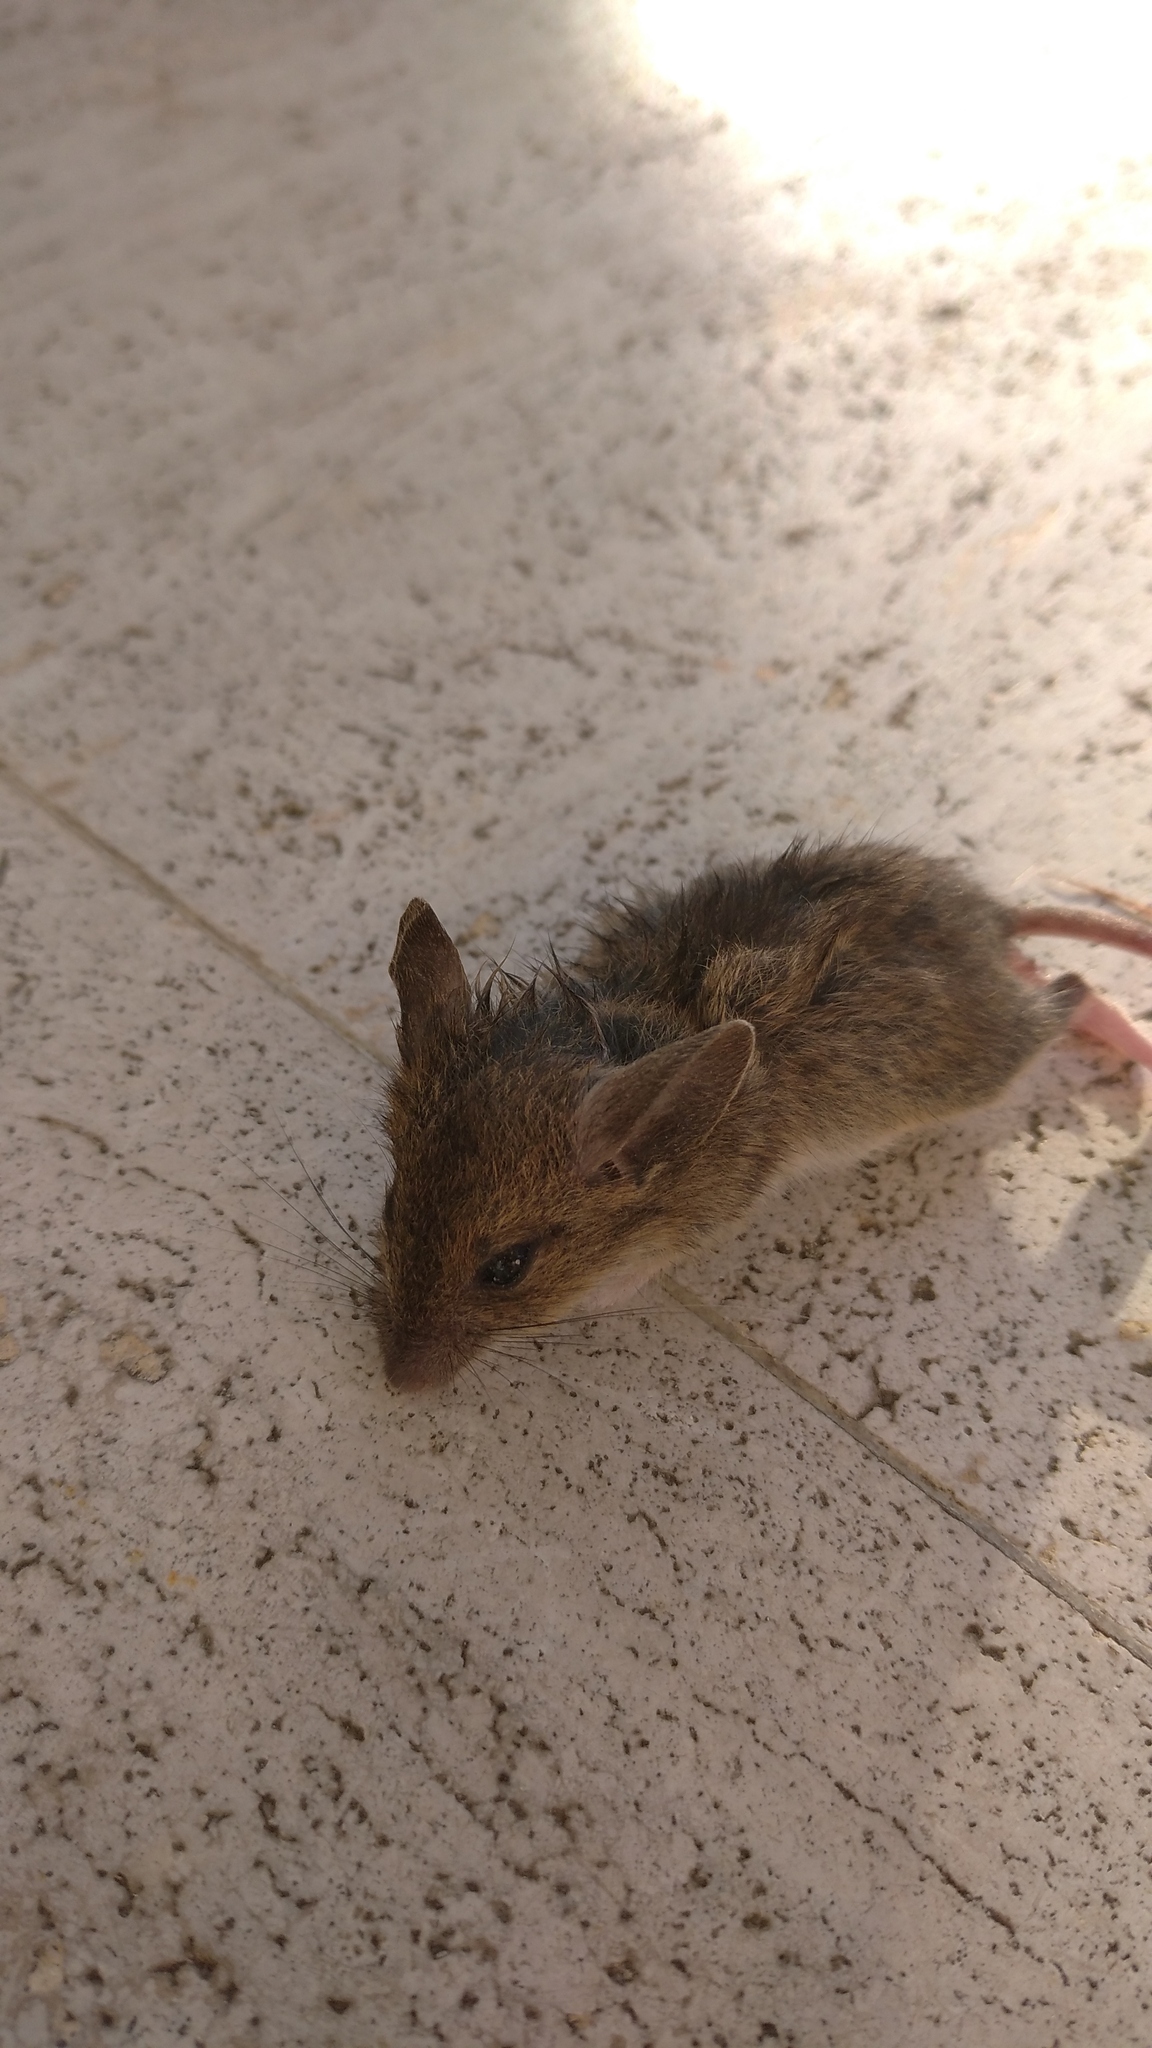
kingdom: Animalia
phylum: Chordata
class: Mammalia
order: Rodentia
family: Muridae
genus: Mus
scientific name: Mus musculus
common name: House mouse
